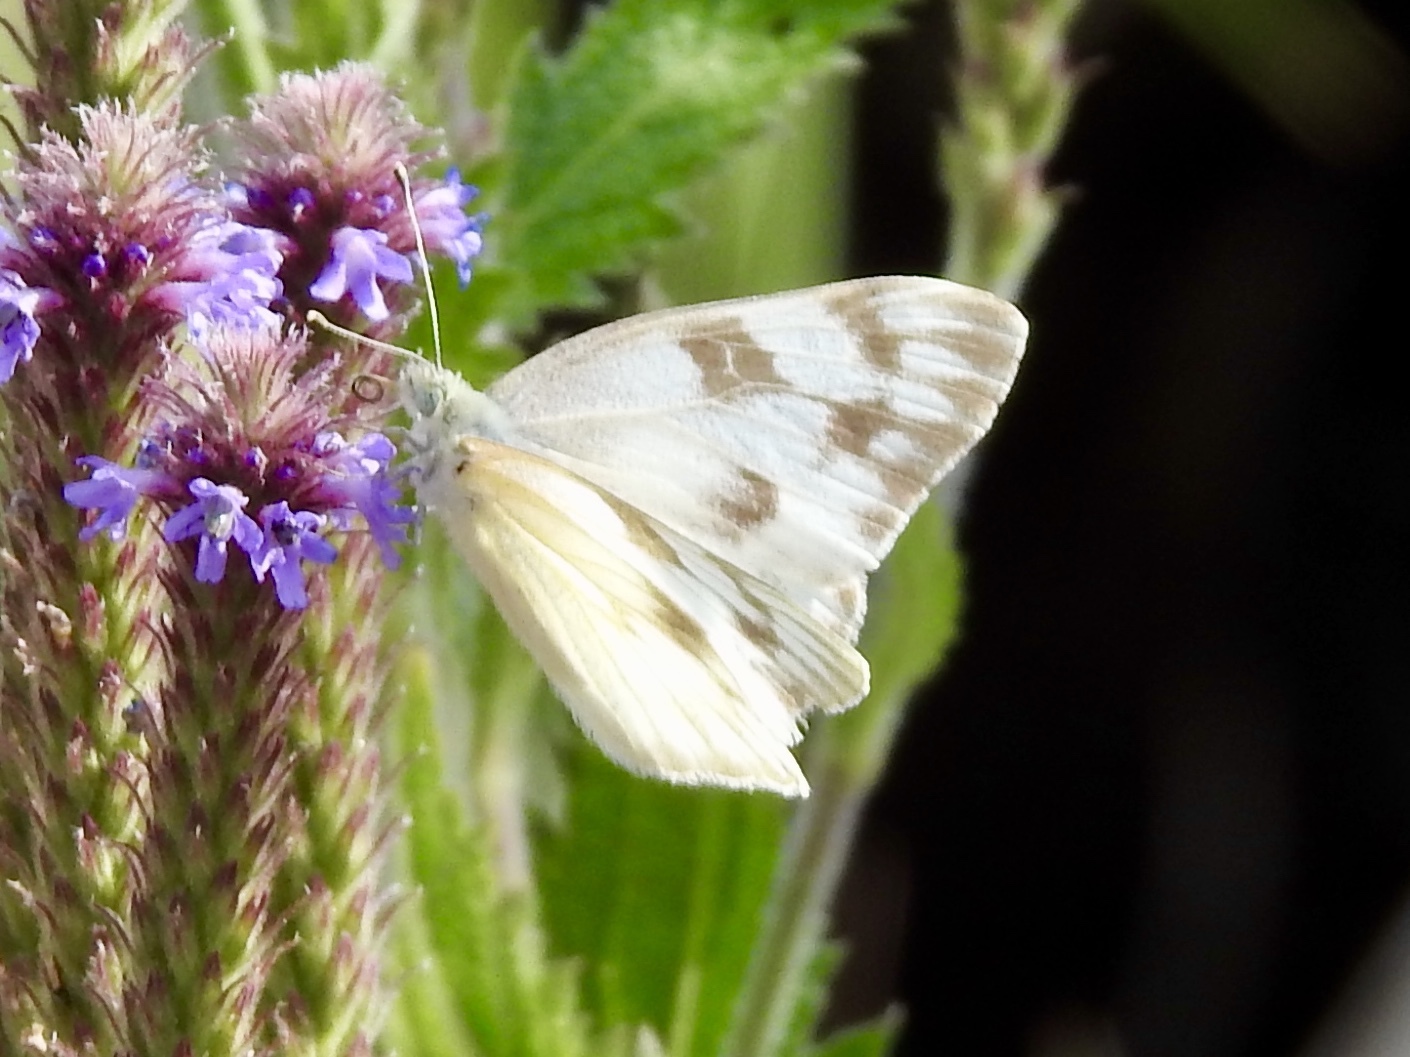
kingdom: Animalia
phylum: Arthropoda
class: Insecta
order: Lepidoptera
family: Pieridae
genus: Pontia
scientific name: Pontia protodice
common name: Checkered white
